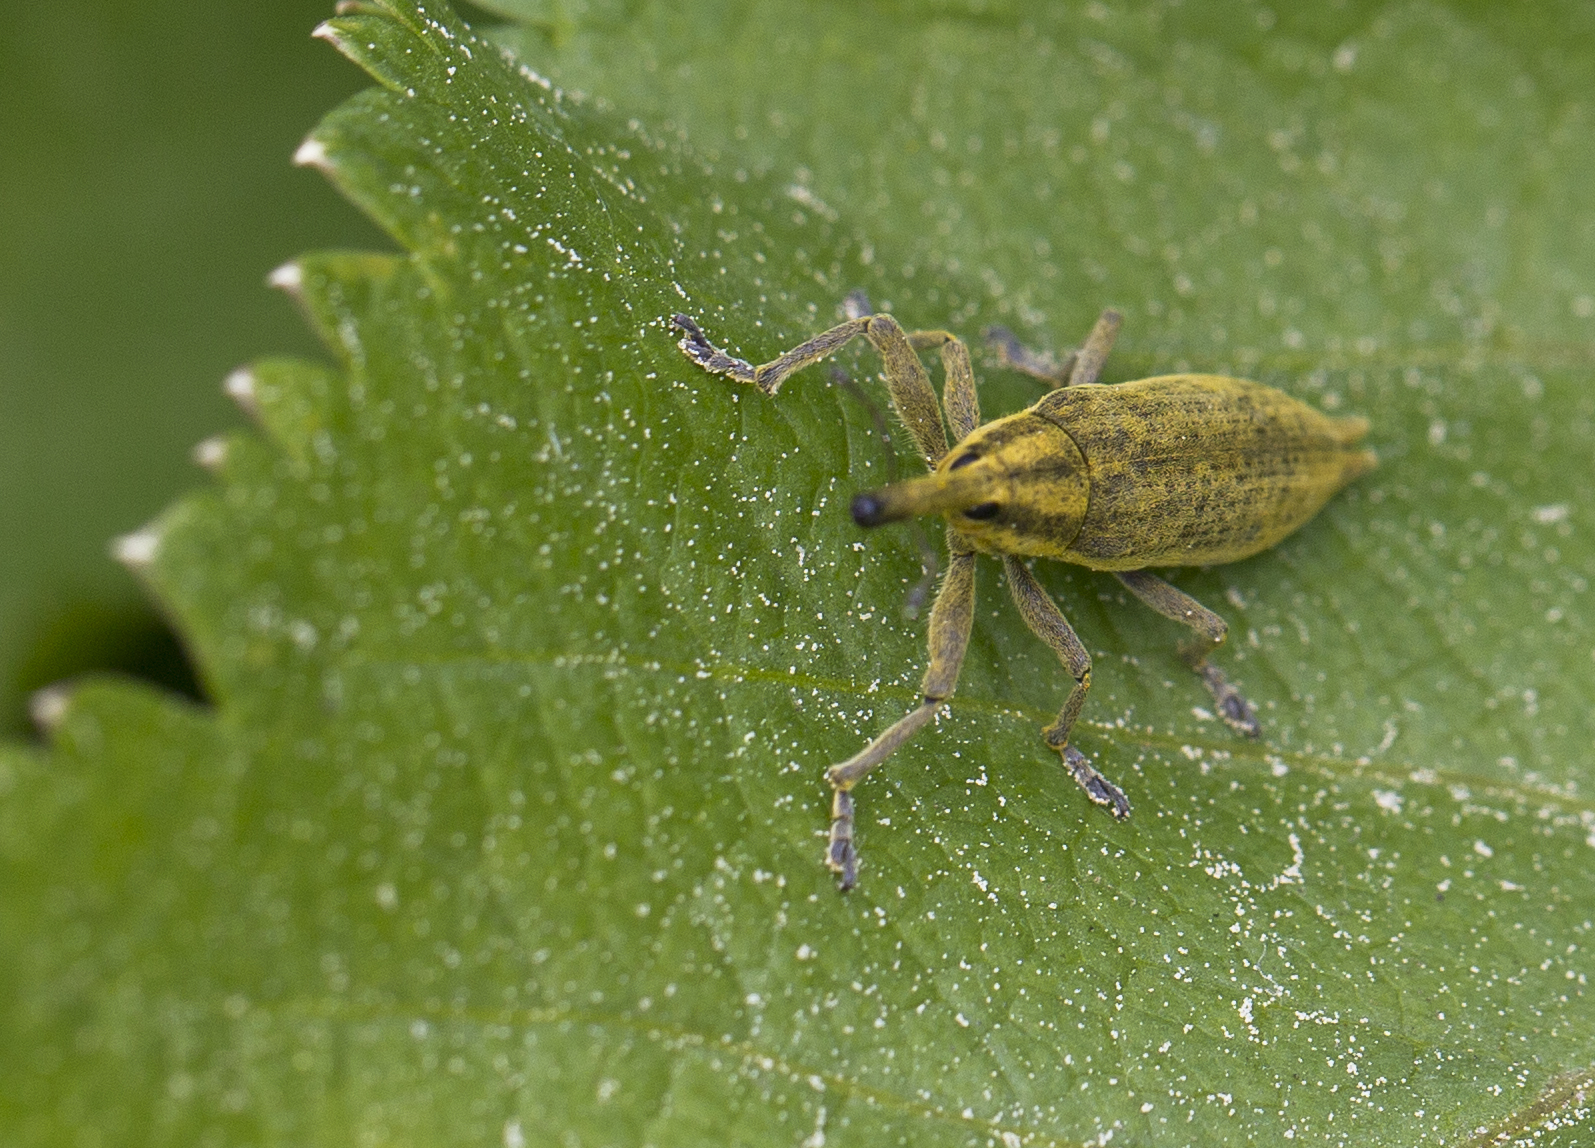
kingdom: Animalia
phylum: Arthropoda
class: Insecta
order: Coleoptera
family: Curculionidae
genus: Lixus
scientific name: Lixus iridis
